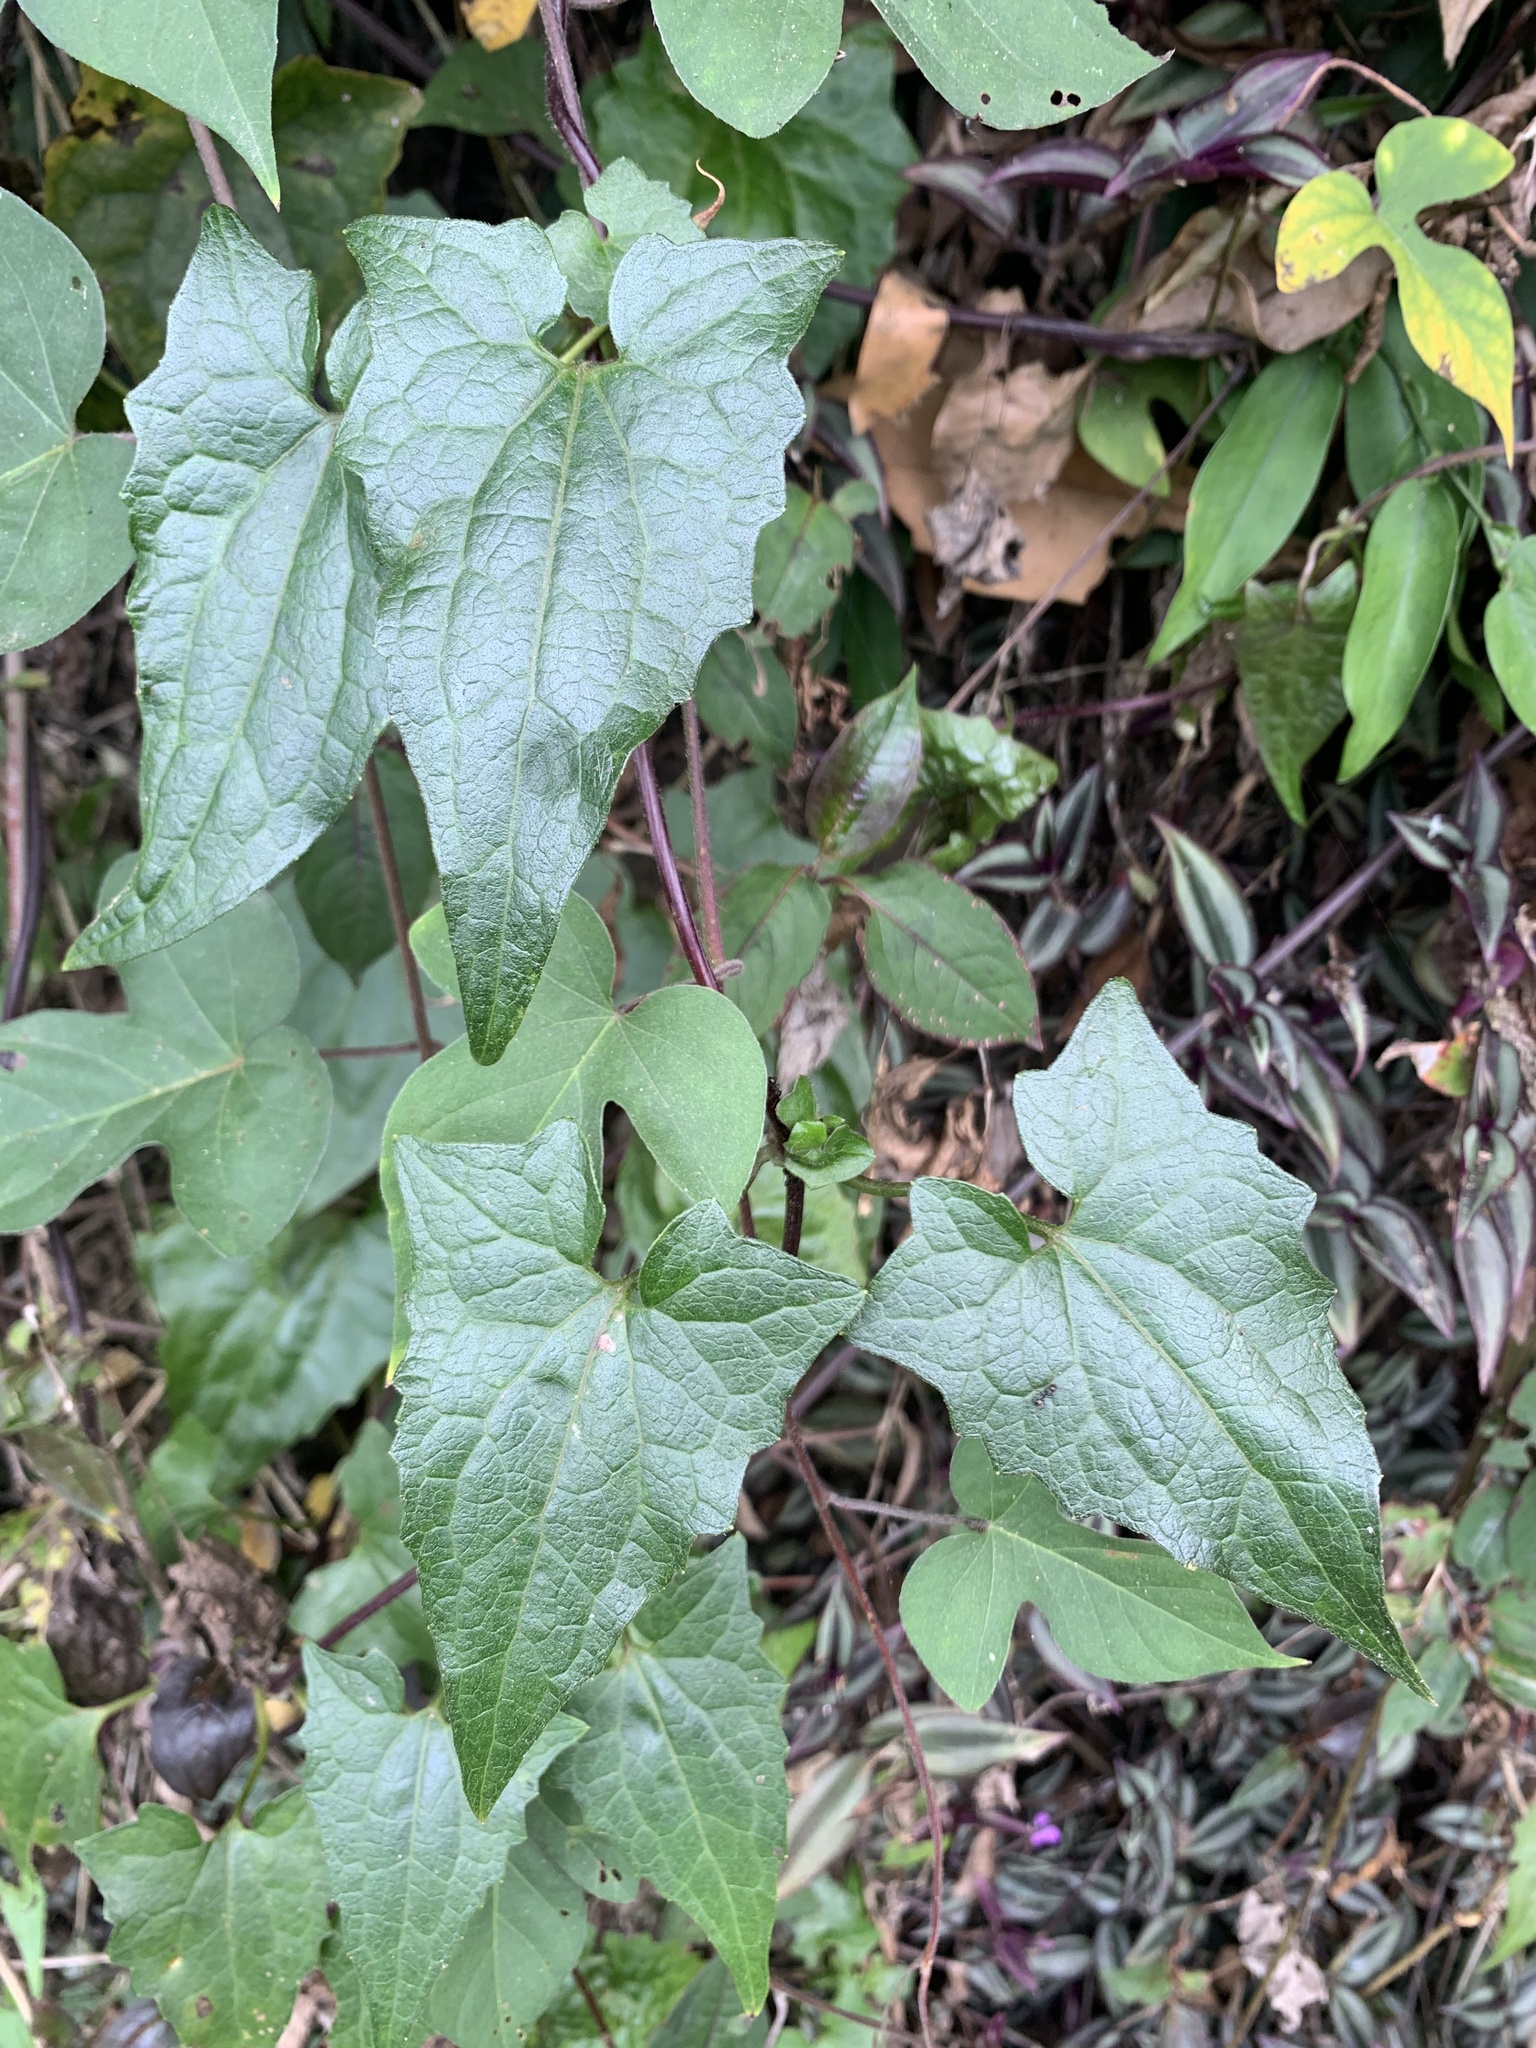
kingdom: Plantae
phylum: Tracheophyta
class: Magnoliopsida
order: Asterales
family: Asteraceae
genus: Mikania
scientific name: Mikania micrantha
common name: Mile-a-minute
